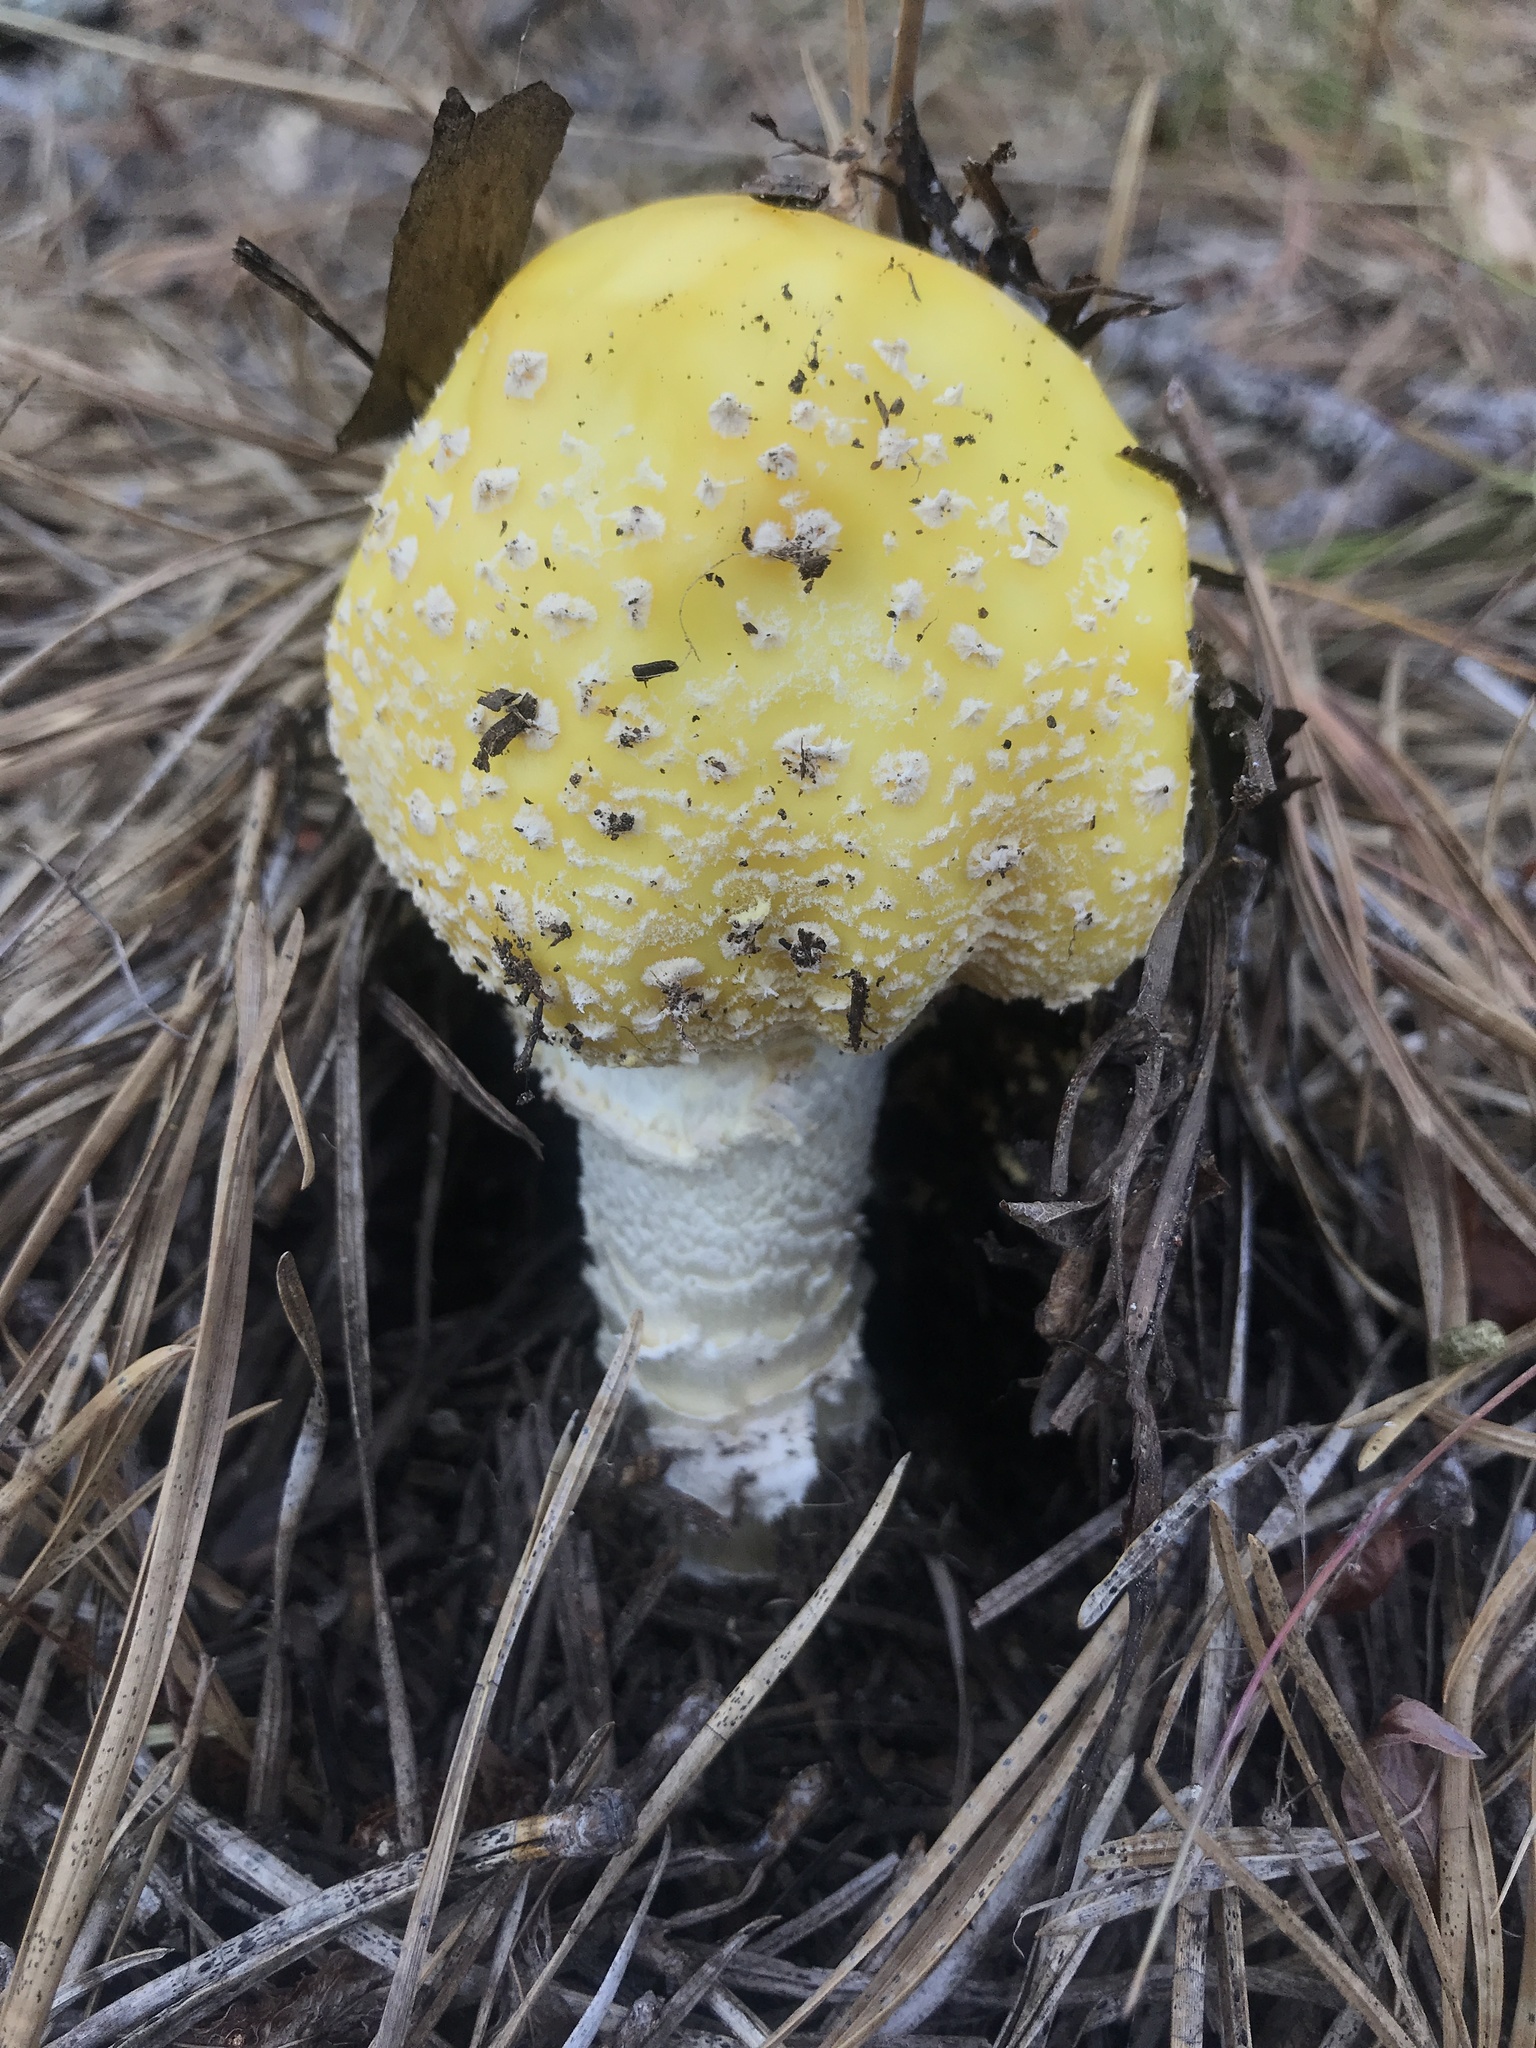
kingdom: Fungi
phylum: Basidiomycota
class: Agaricomycetes
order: Agaricales
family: Amanitaceae
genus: Amanita
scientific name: Amanita muscaria
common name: Fly agaric
